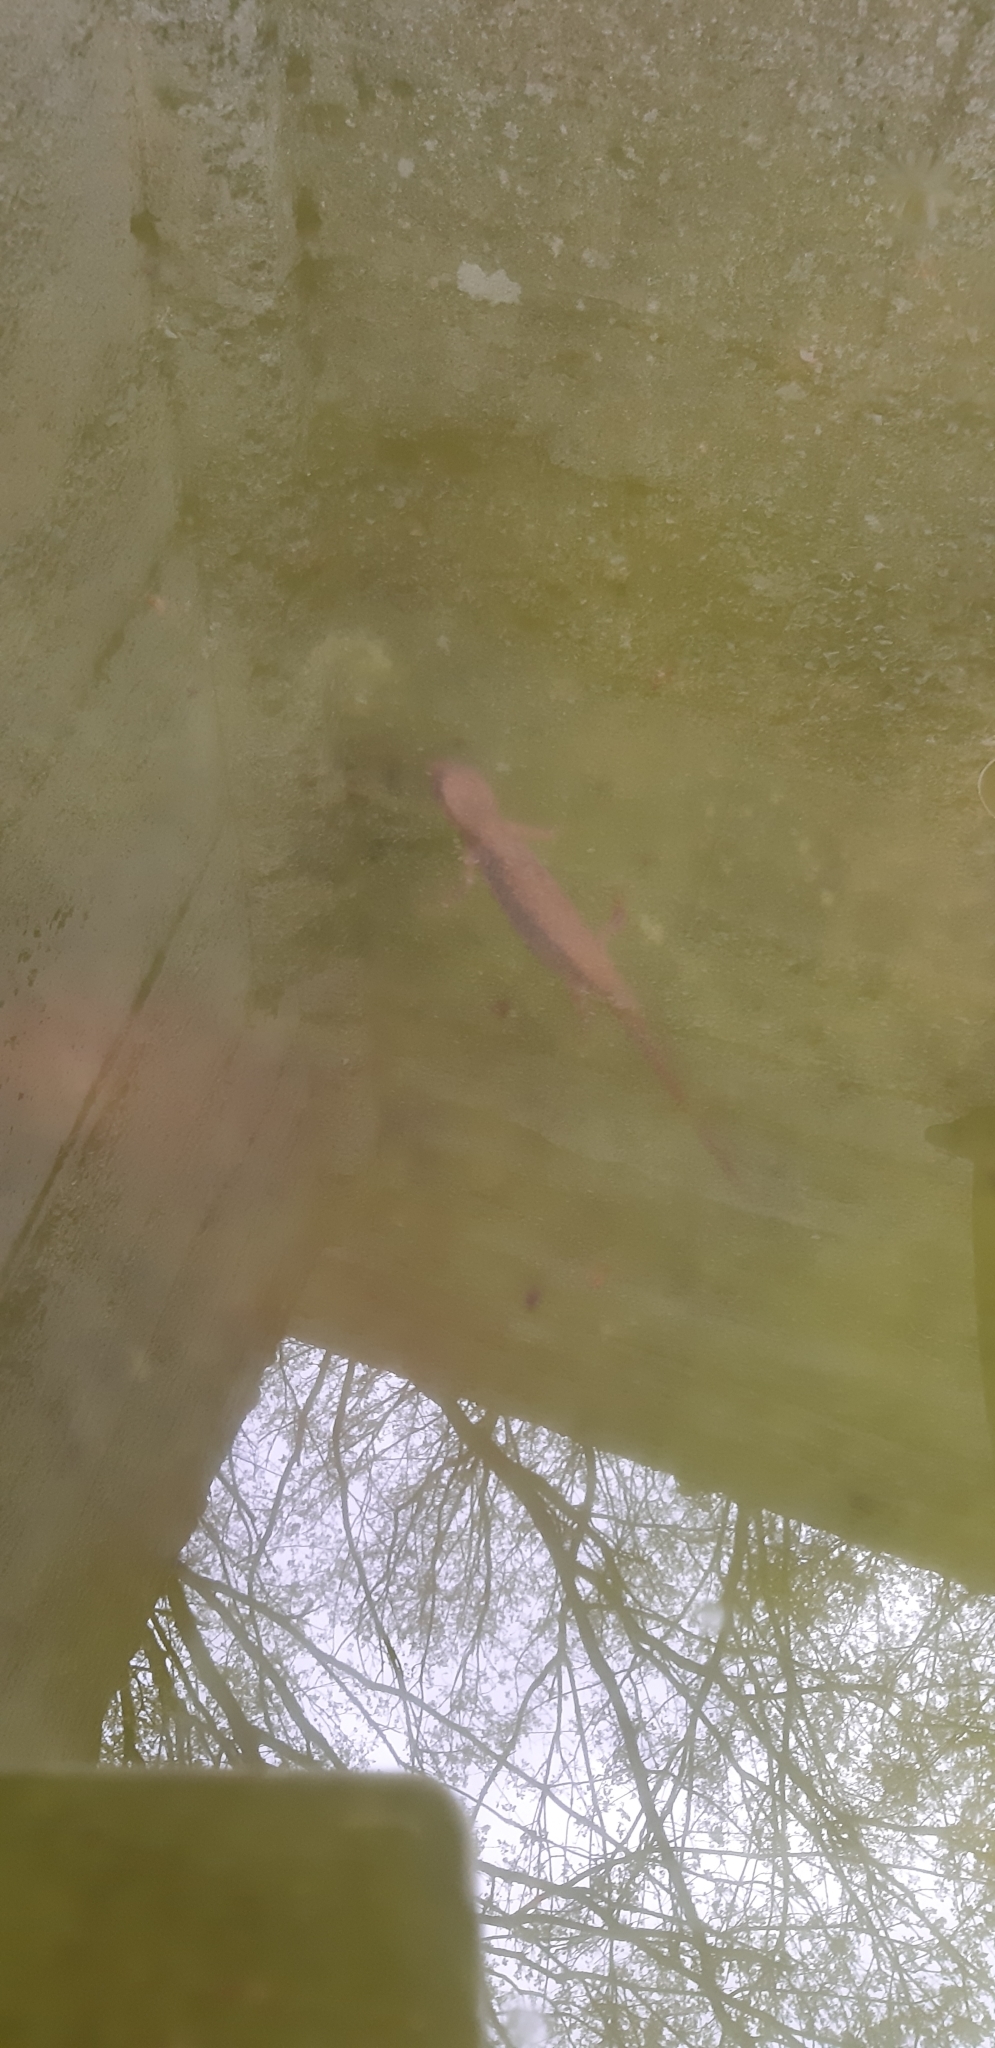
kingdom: Animalia
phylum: Chordata
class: Amphibia
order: Caudata
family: Salamandridae
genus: Lissotriton
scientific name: Lissotriton italicus
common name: Italian newt
